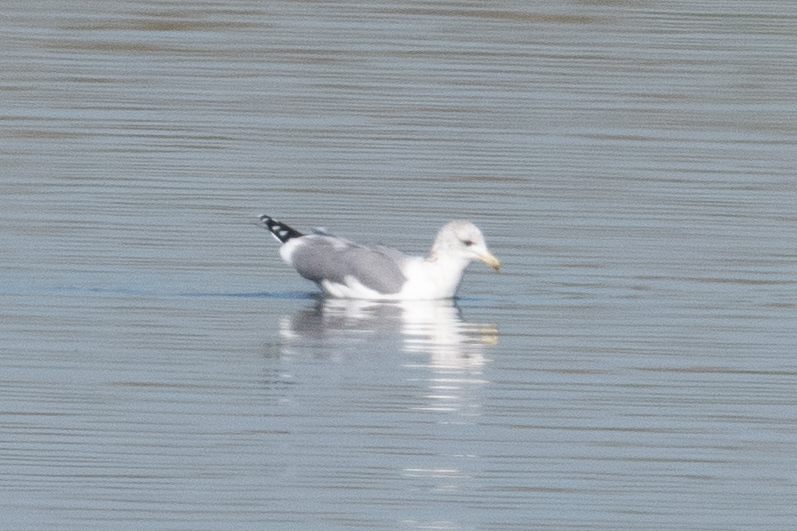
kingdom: Animalia
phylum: Chordata
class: Aves
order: Charadriiformes
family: Laridae
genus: Larus
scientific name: Larus californicus
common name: California gull
